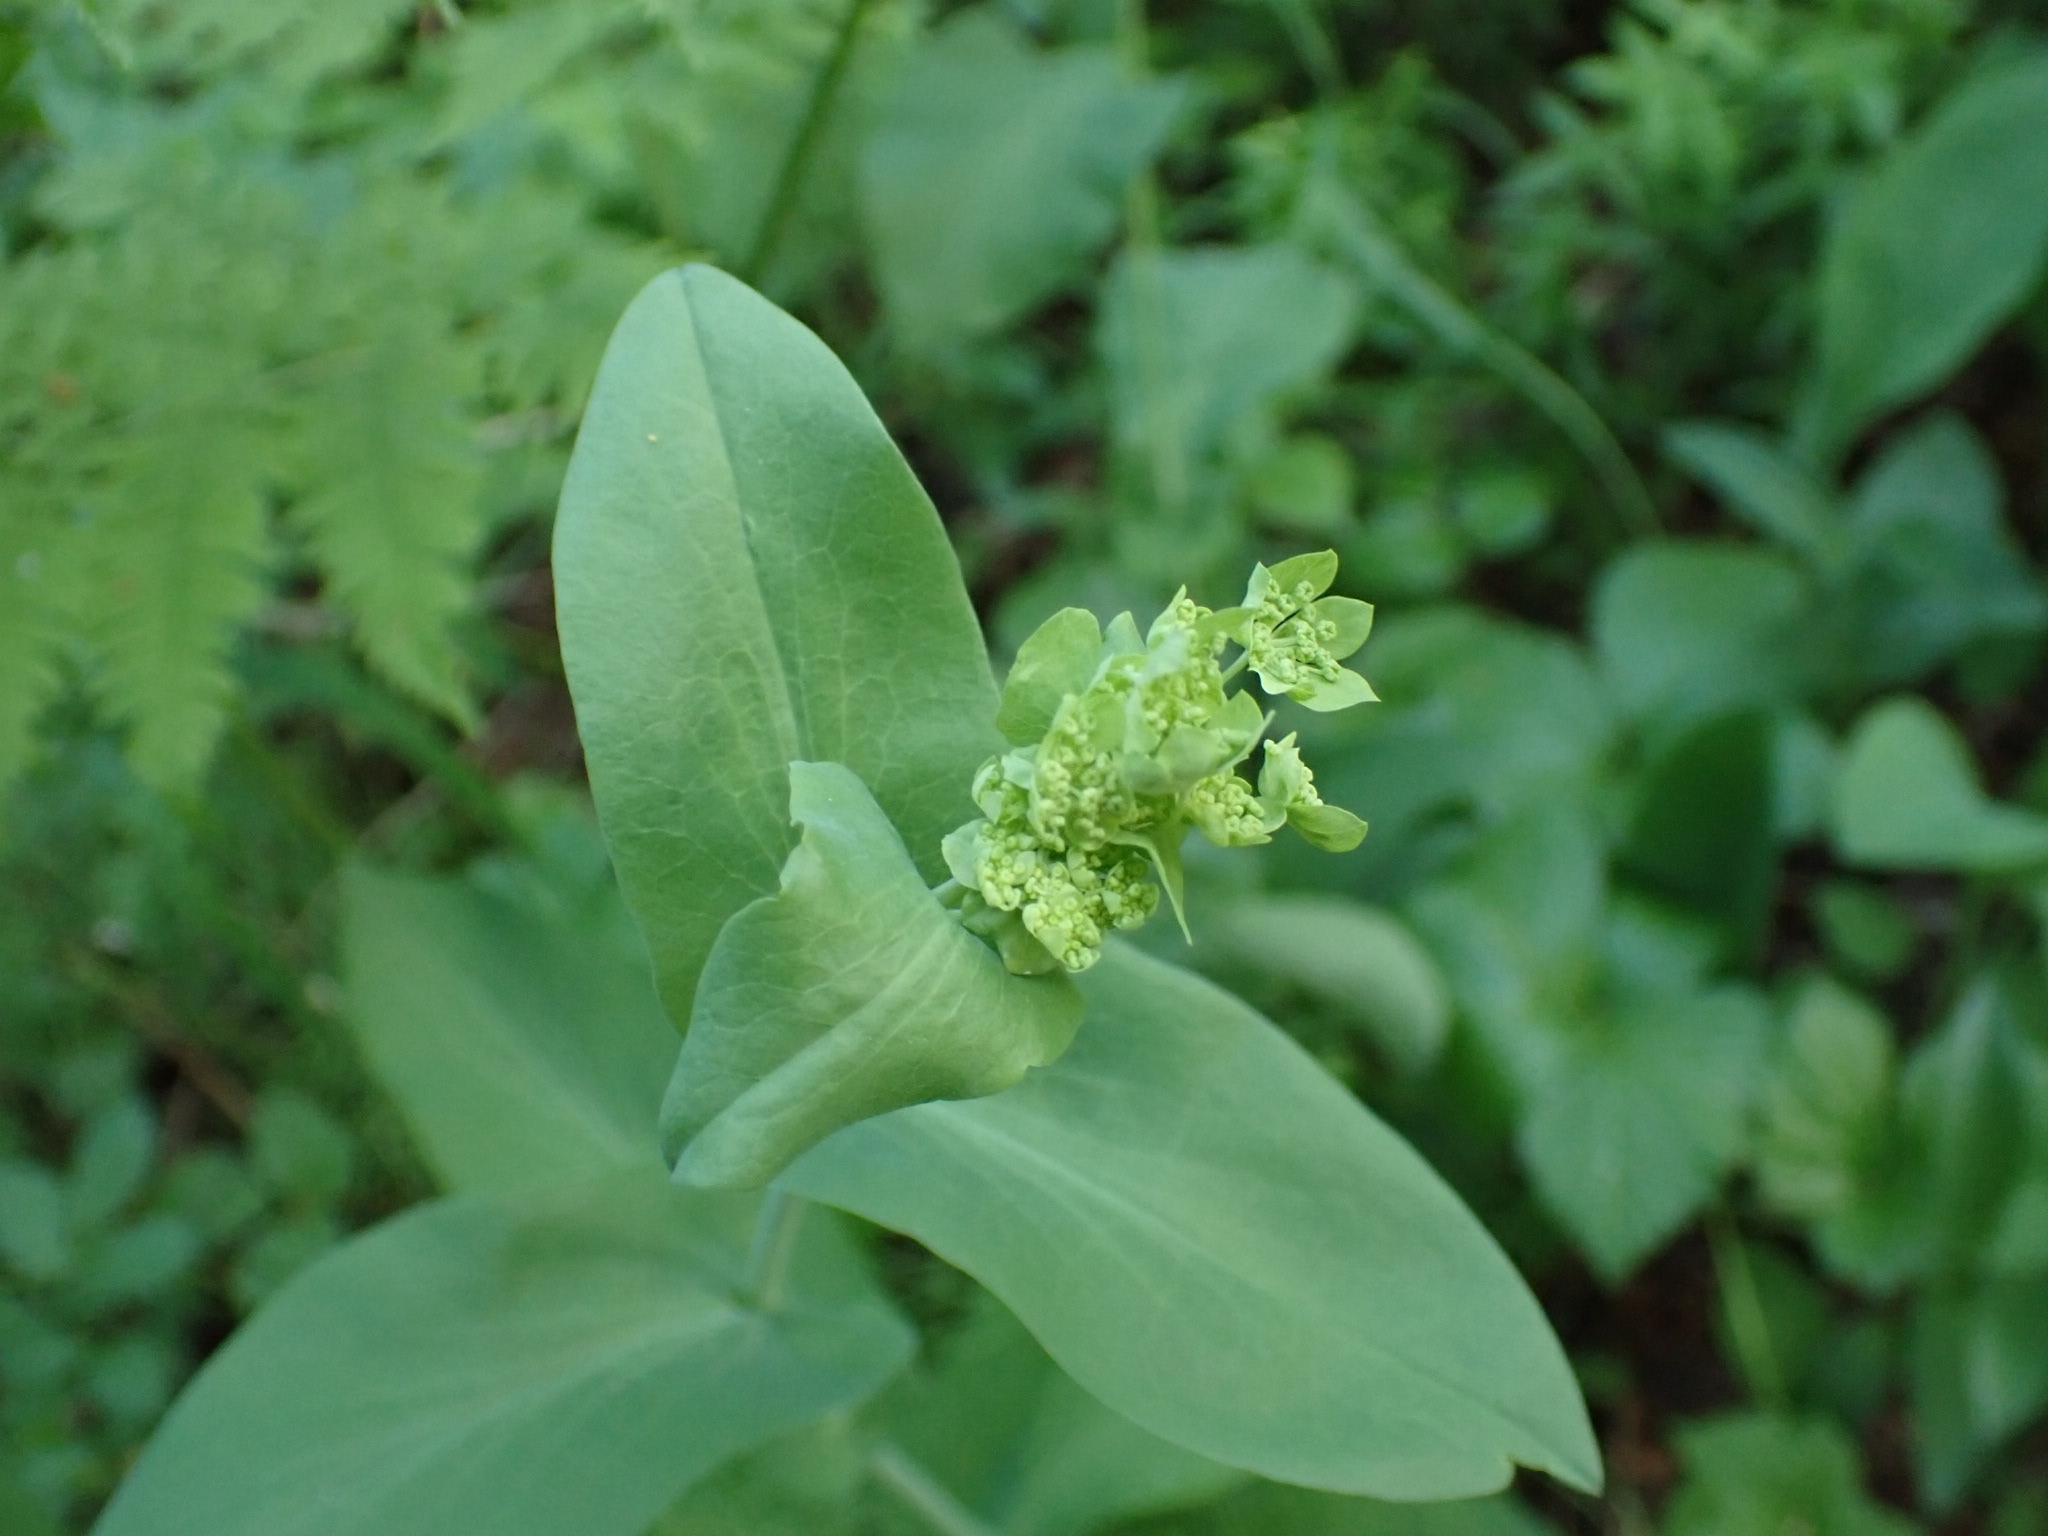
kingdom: Plantae
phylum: Tracheophyta
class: Magnoliopsida
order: Apiales
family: Apiaceae
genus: Bupleurum
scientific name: Bupleurum aureum
